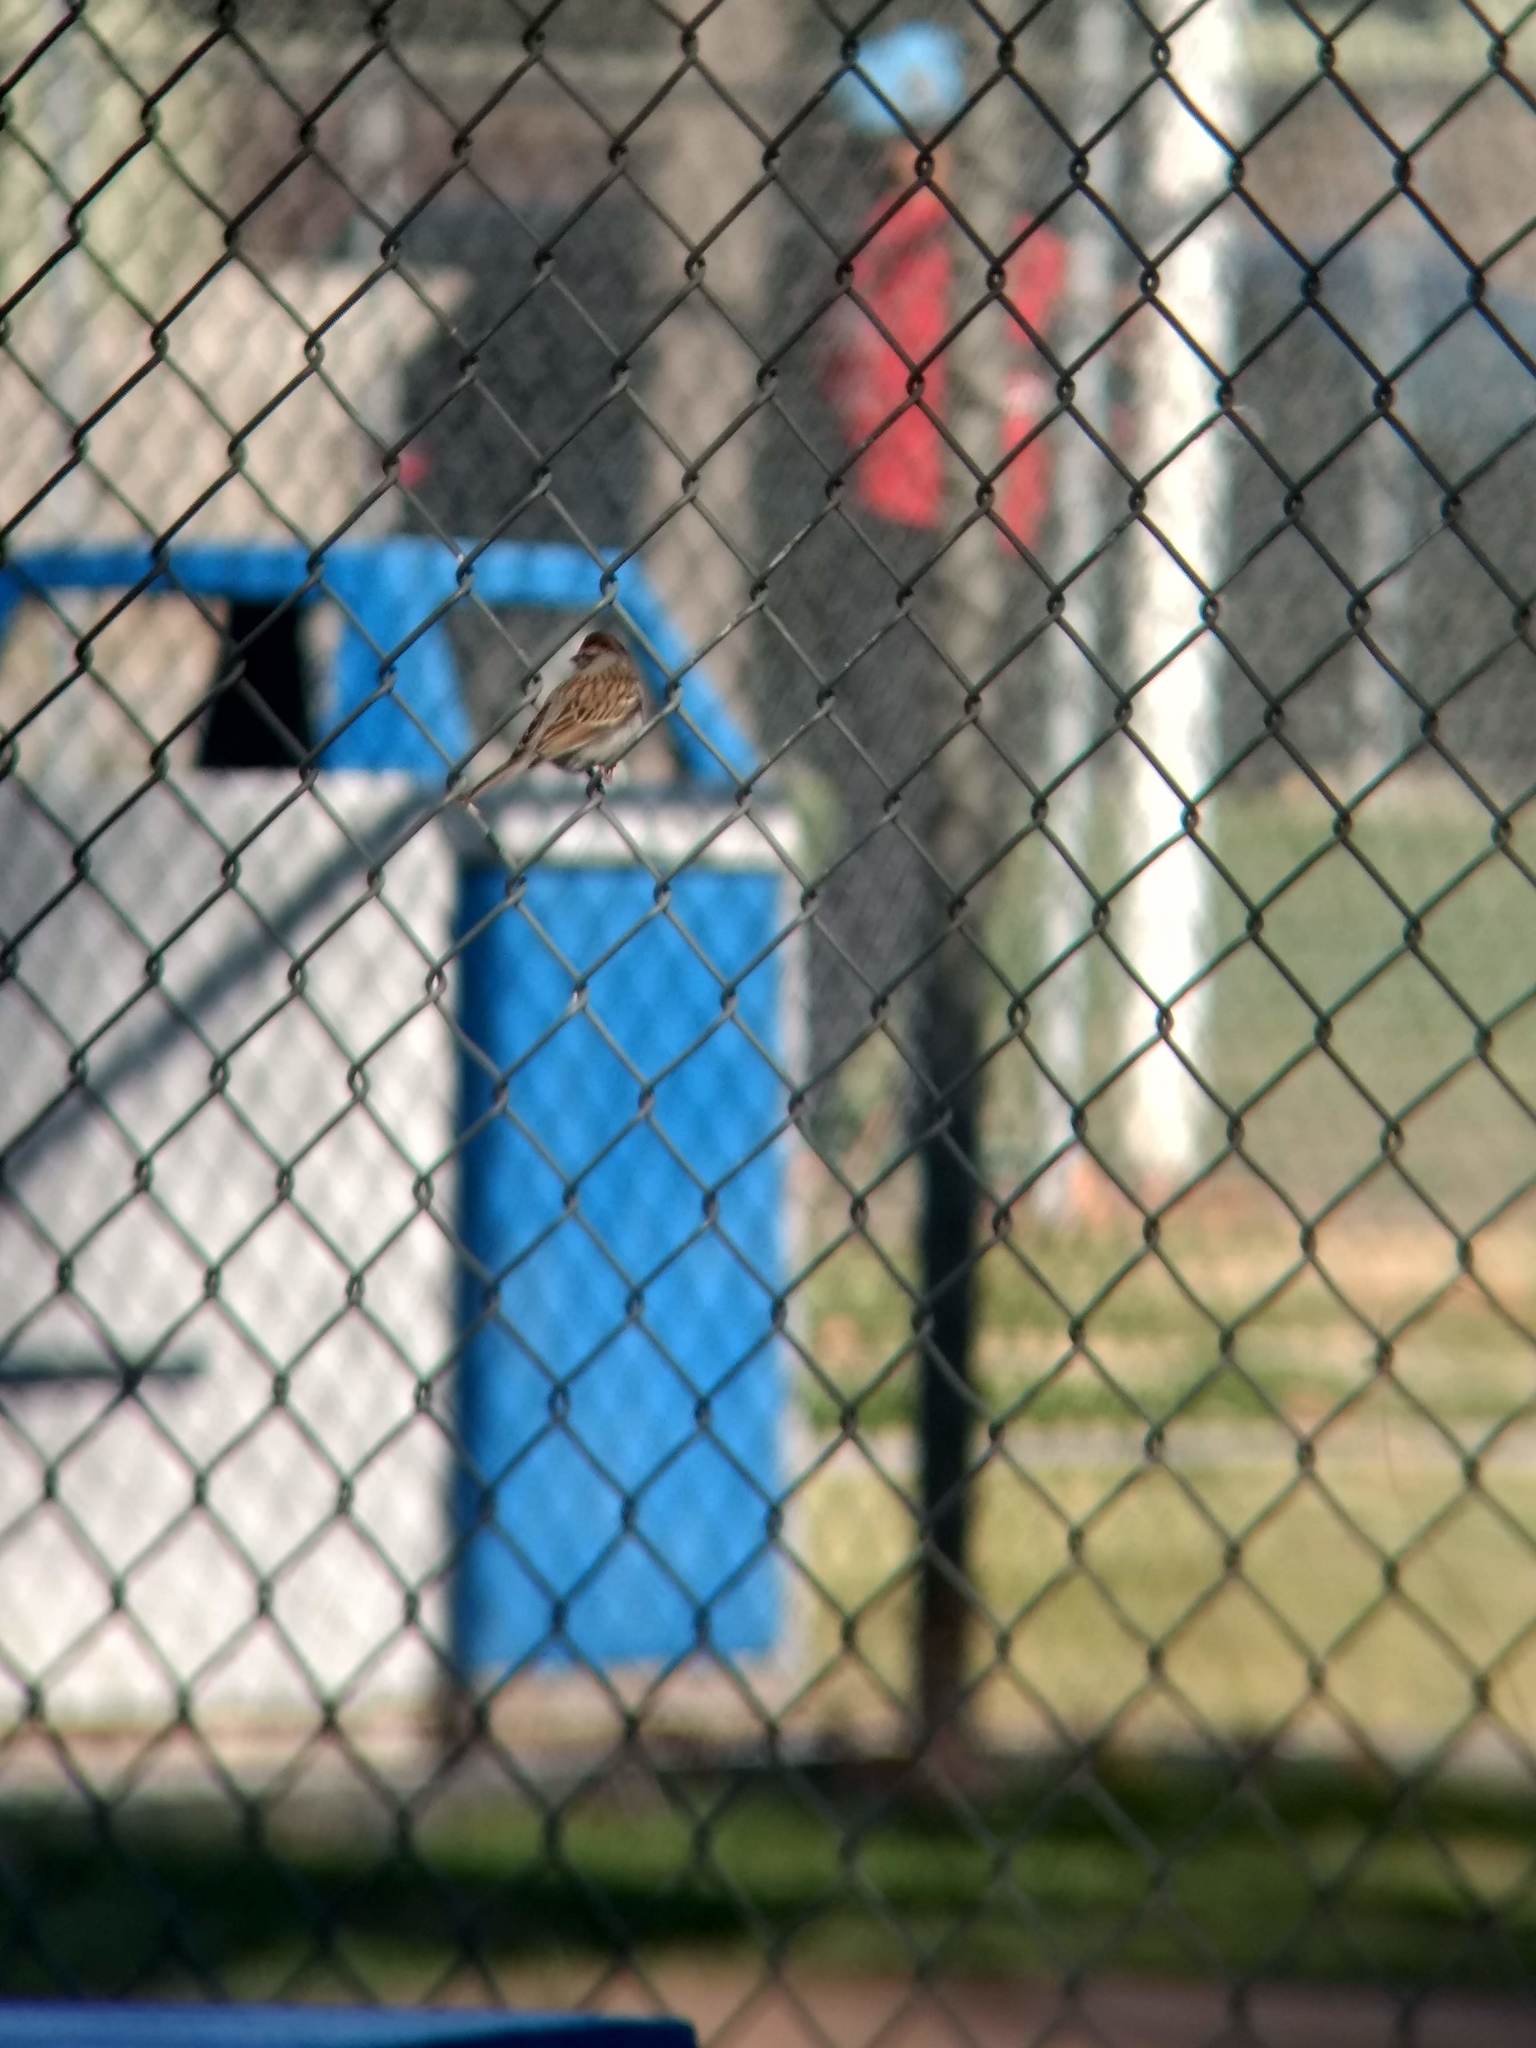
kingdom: Animalia
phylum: Chordata
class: Aves
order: Passeriformes
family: Passerellidae
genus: Spizella
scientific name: Spizella passerina
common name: Chipping sparrow
